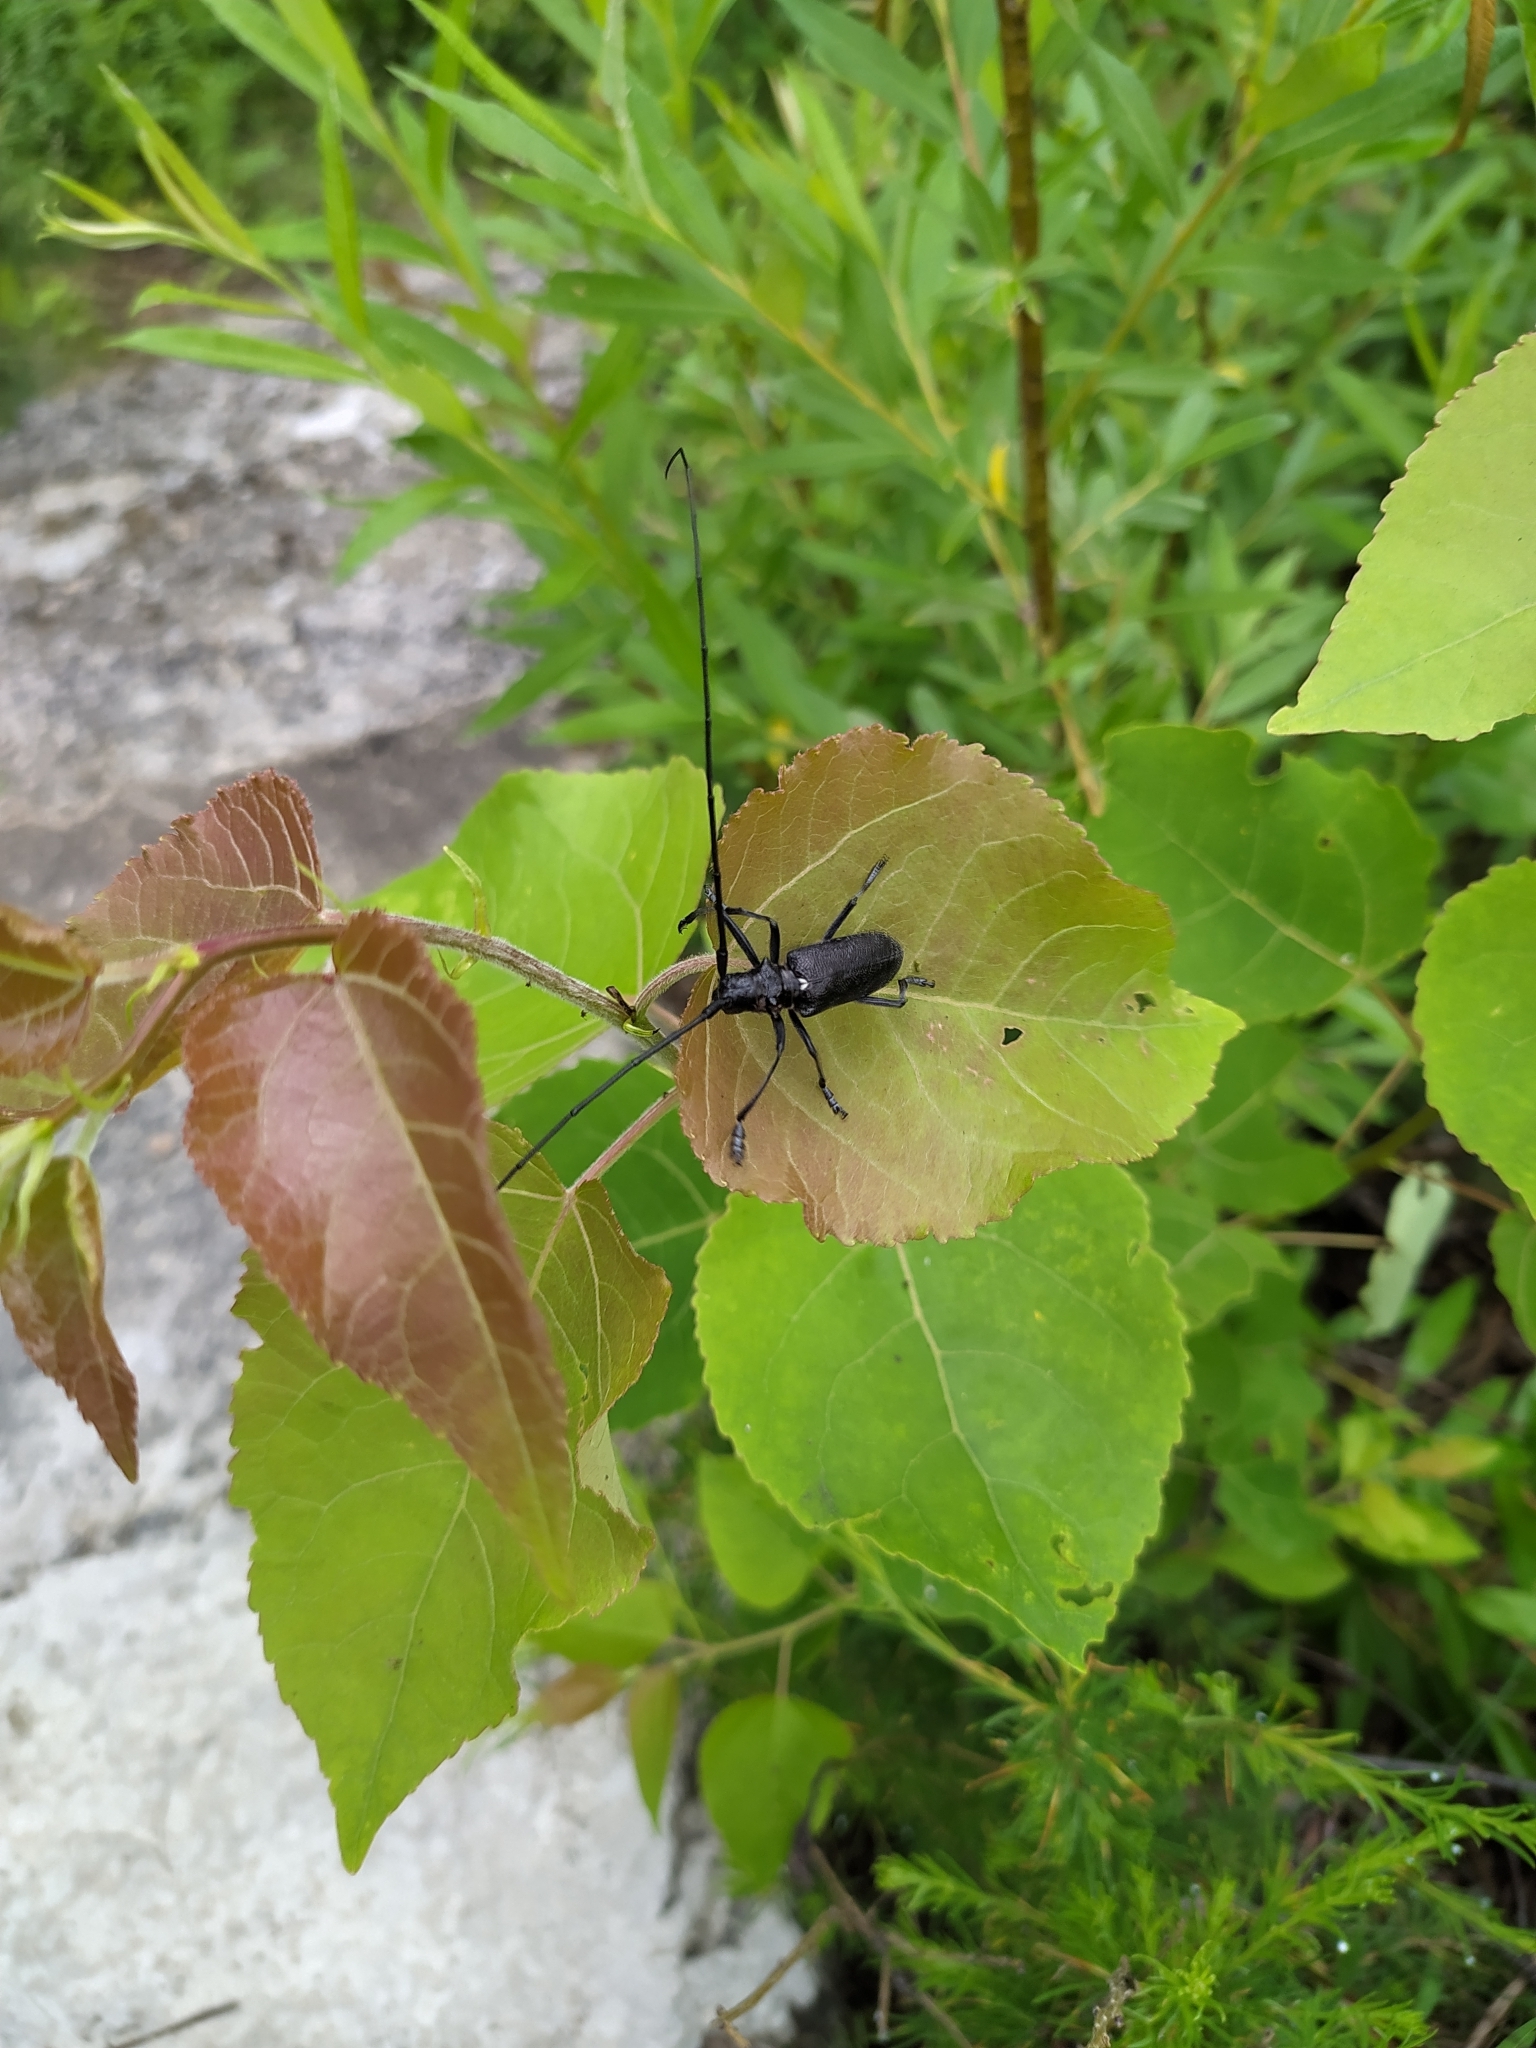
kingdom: Animalia
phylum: Arthropoda
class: Insecta
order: Coleoptera
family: Cerambycidae
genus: Monochamus
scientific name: Monochamus sutor
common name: Pine sawyer
